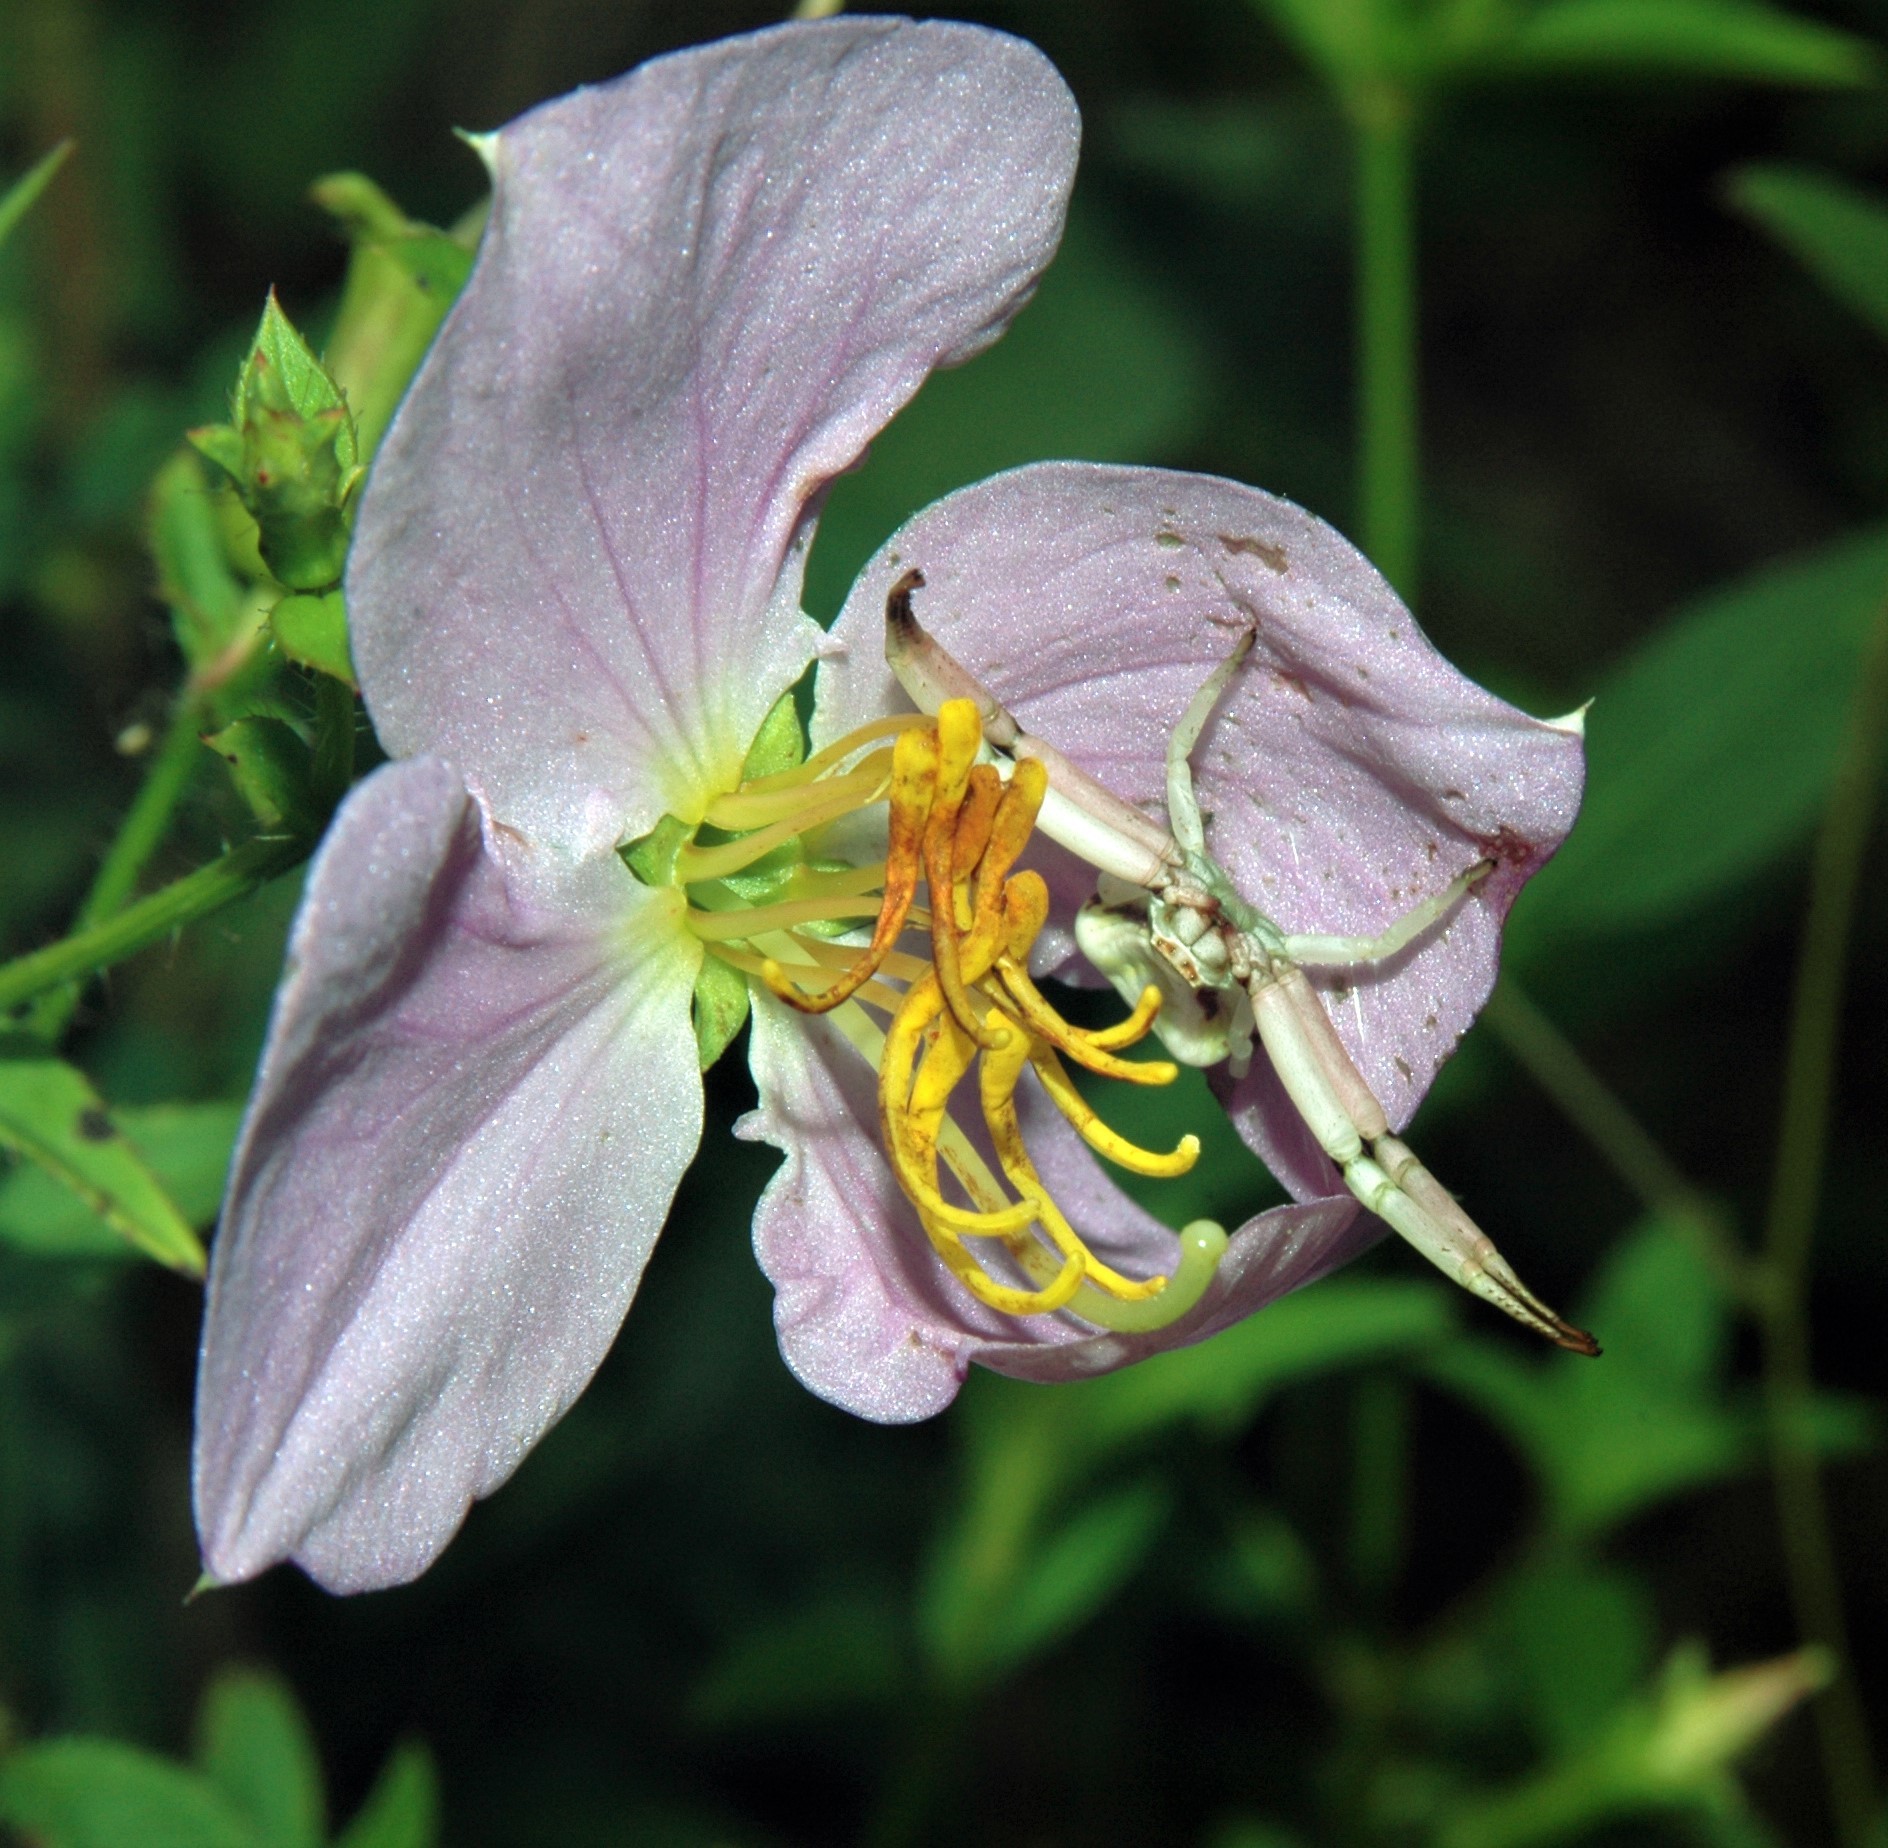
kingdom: Animalia
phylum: Arthropoda
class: Arachnida
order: Araneae
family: Thomisidae
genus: Misumenoides
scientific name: Misumenoides formosipes
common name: White-banded crab spider
